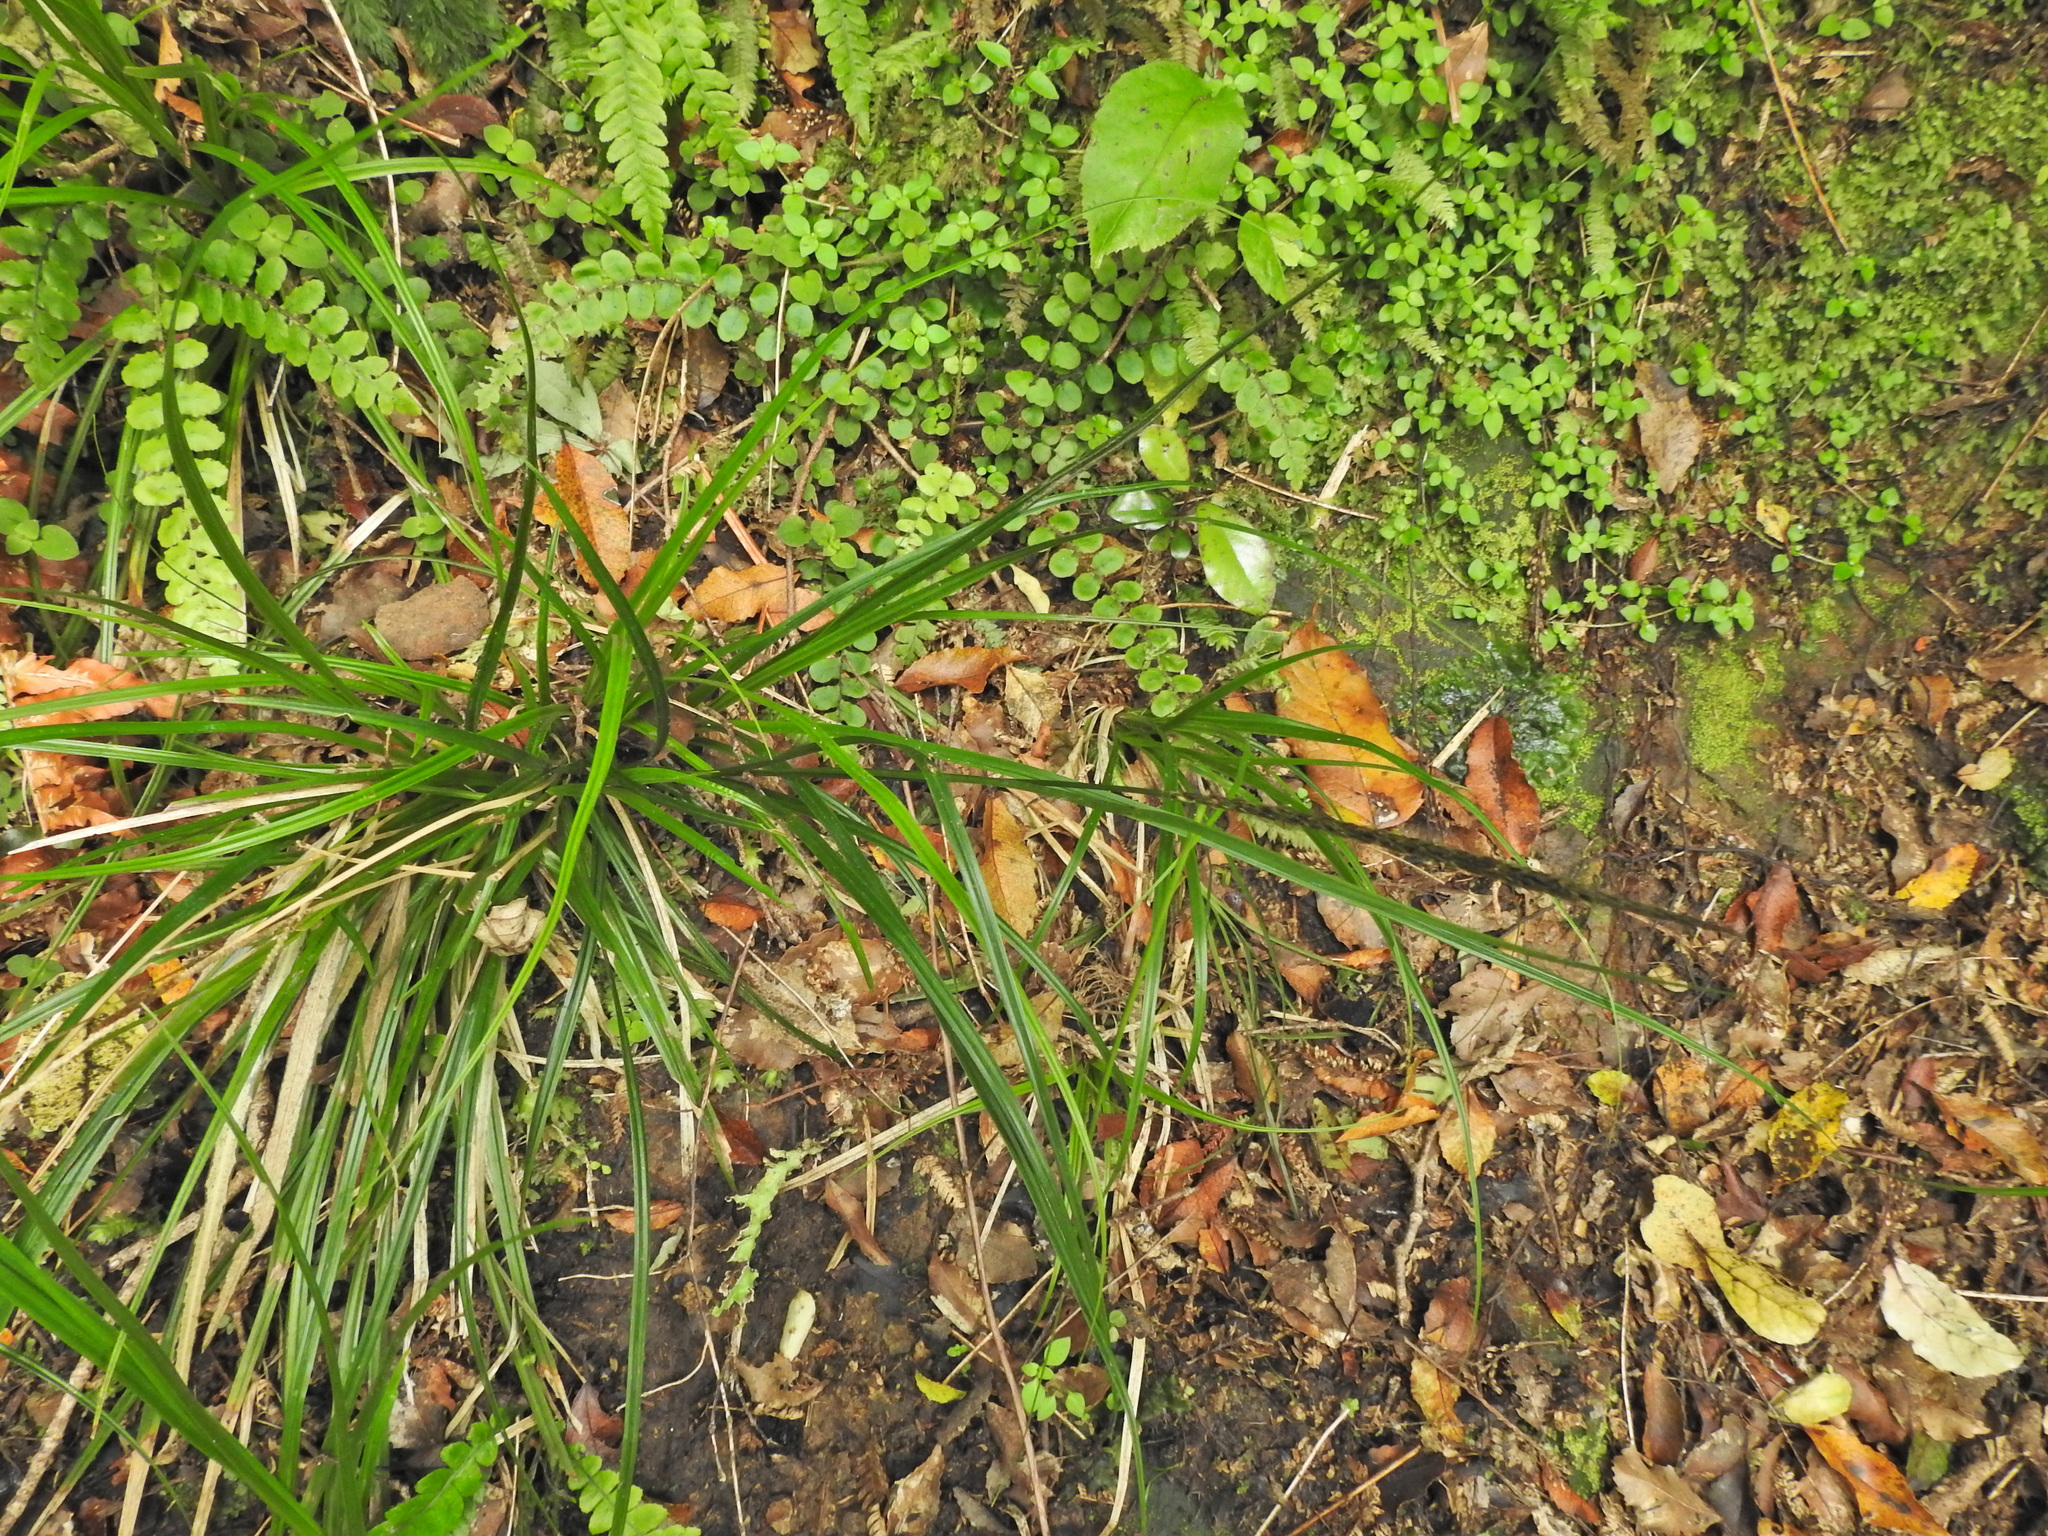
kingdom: Plantae
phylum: Tracheophyta
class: Liliopsida
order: Poales
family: Cyperaceae
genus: Carex
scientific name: Carex uncinata
